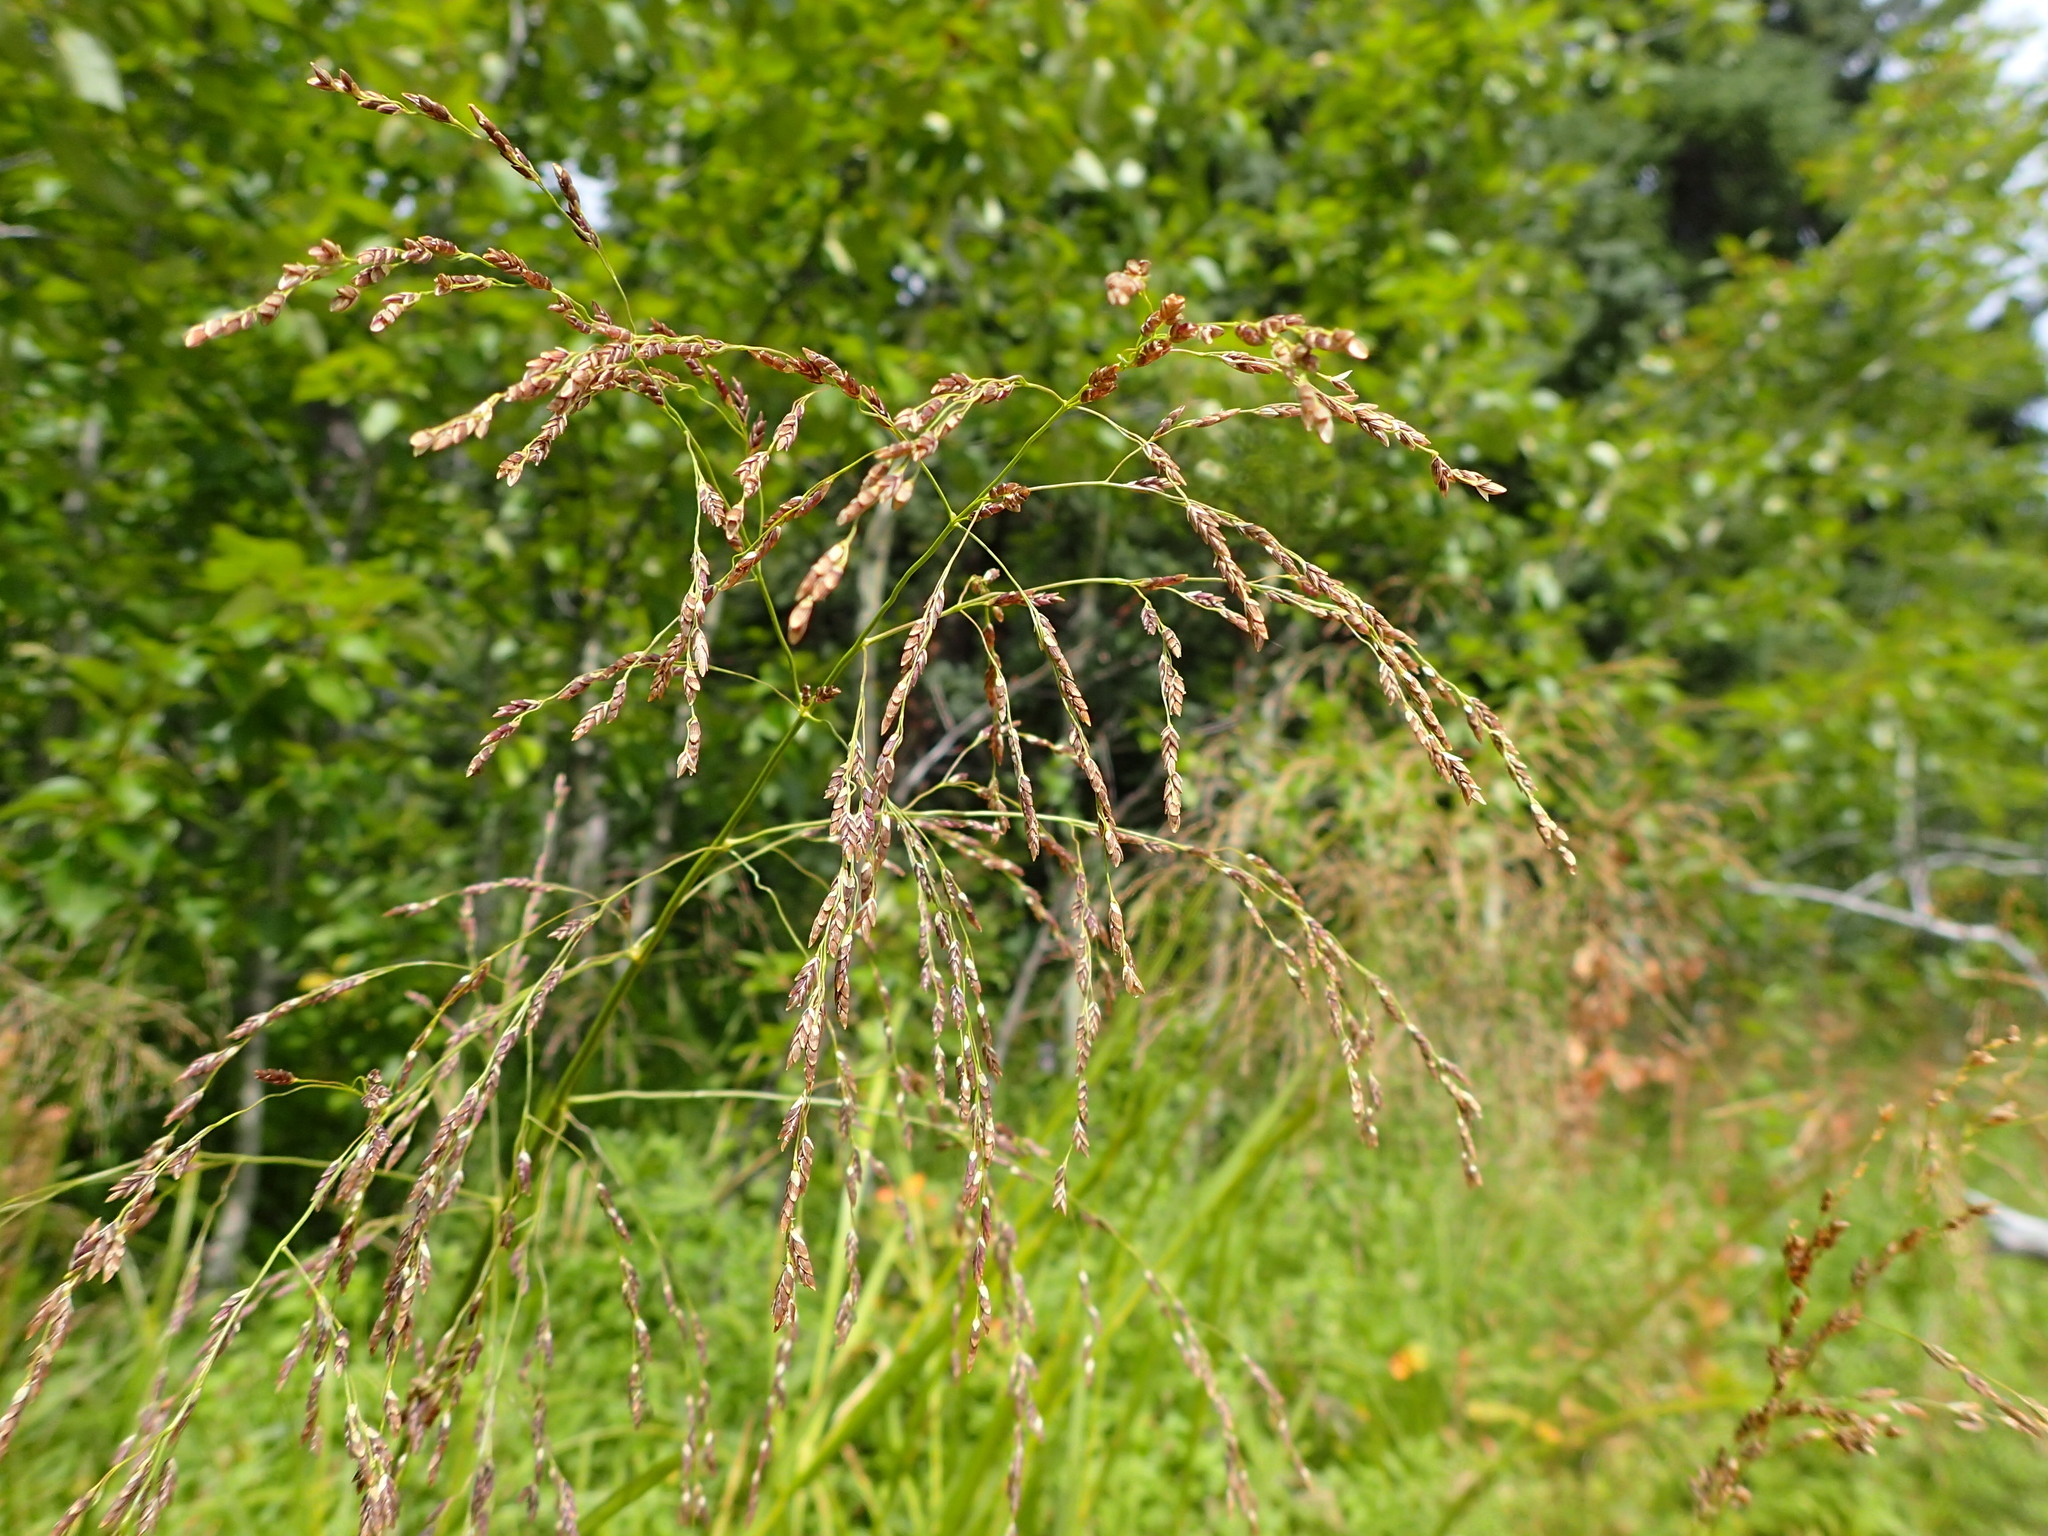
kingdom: Plantae
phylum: Tracheophyta
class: Liliopsida
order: Poales
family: Poaceae
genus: Glyceria
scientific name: Glyceria grandis
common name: American glyceria
